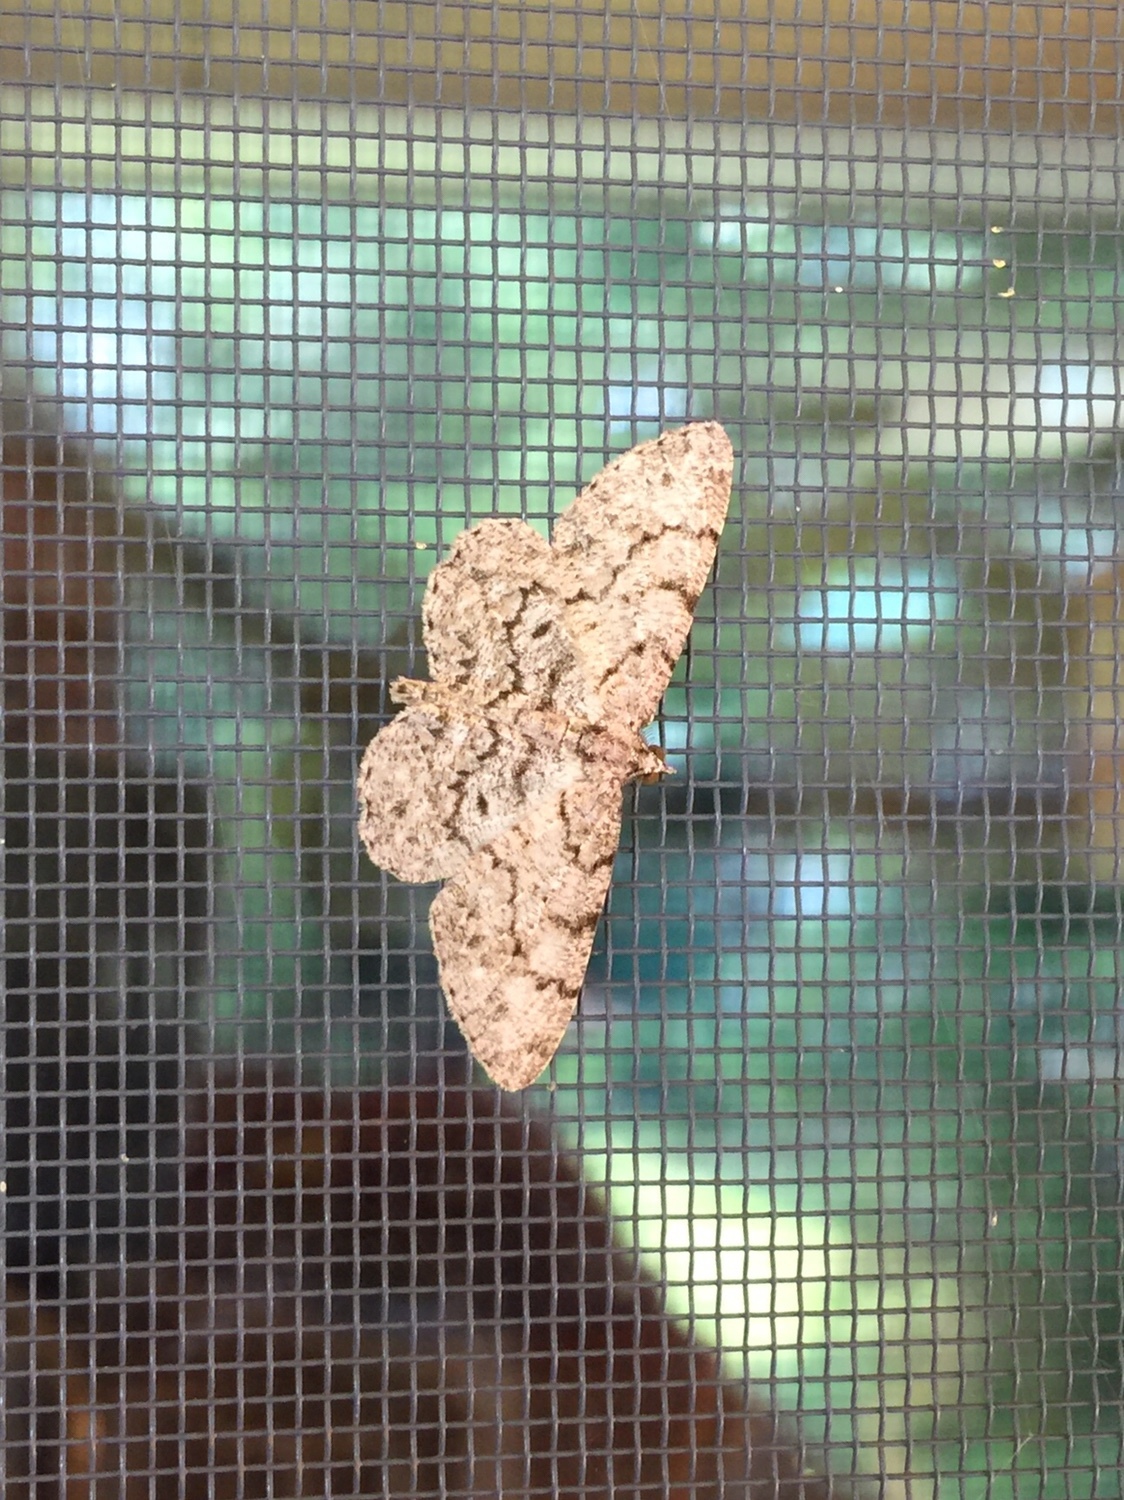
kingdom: Animalia
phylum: Arthropoda
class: Insecta
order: Lepidoptera
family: Geometridae
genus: Protoboarmia
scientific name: Protoboarmia porcelaria
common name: Porcelain gray
